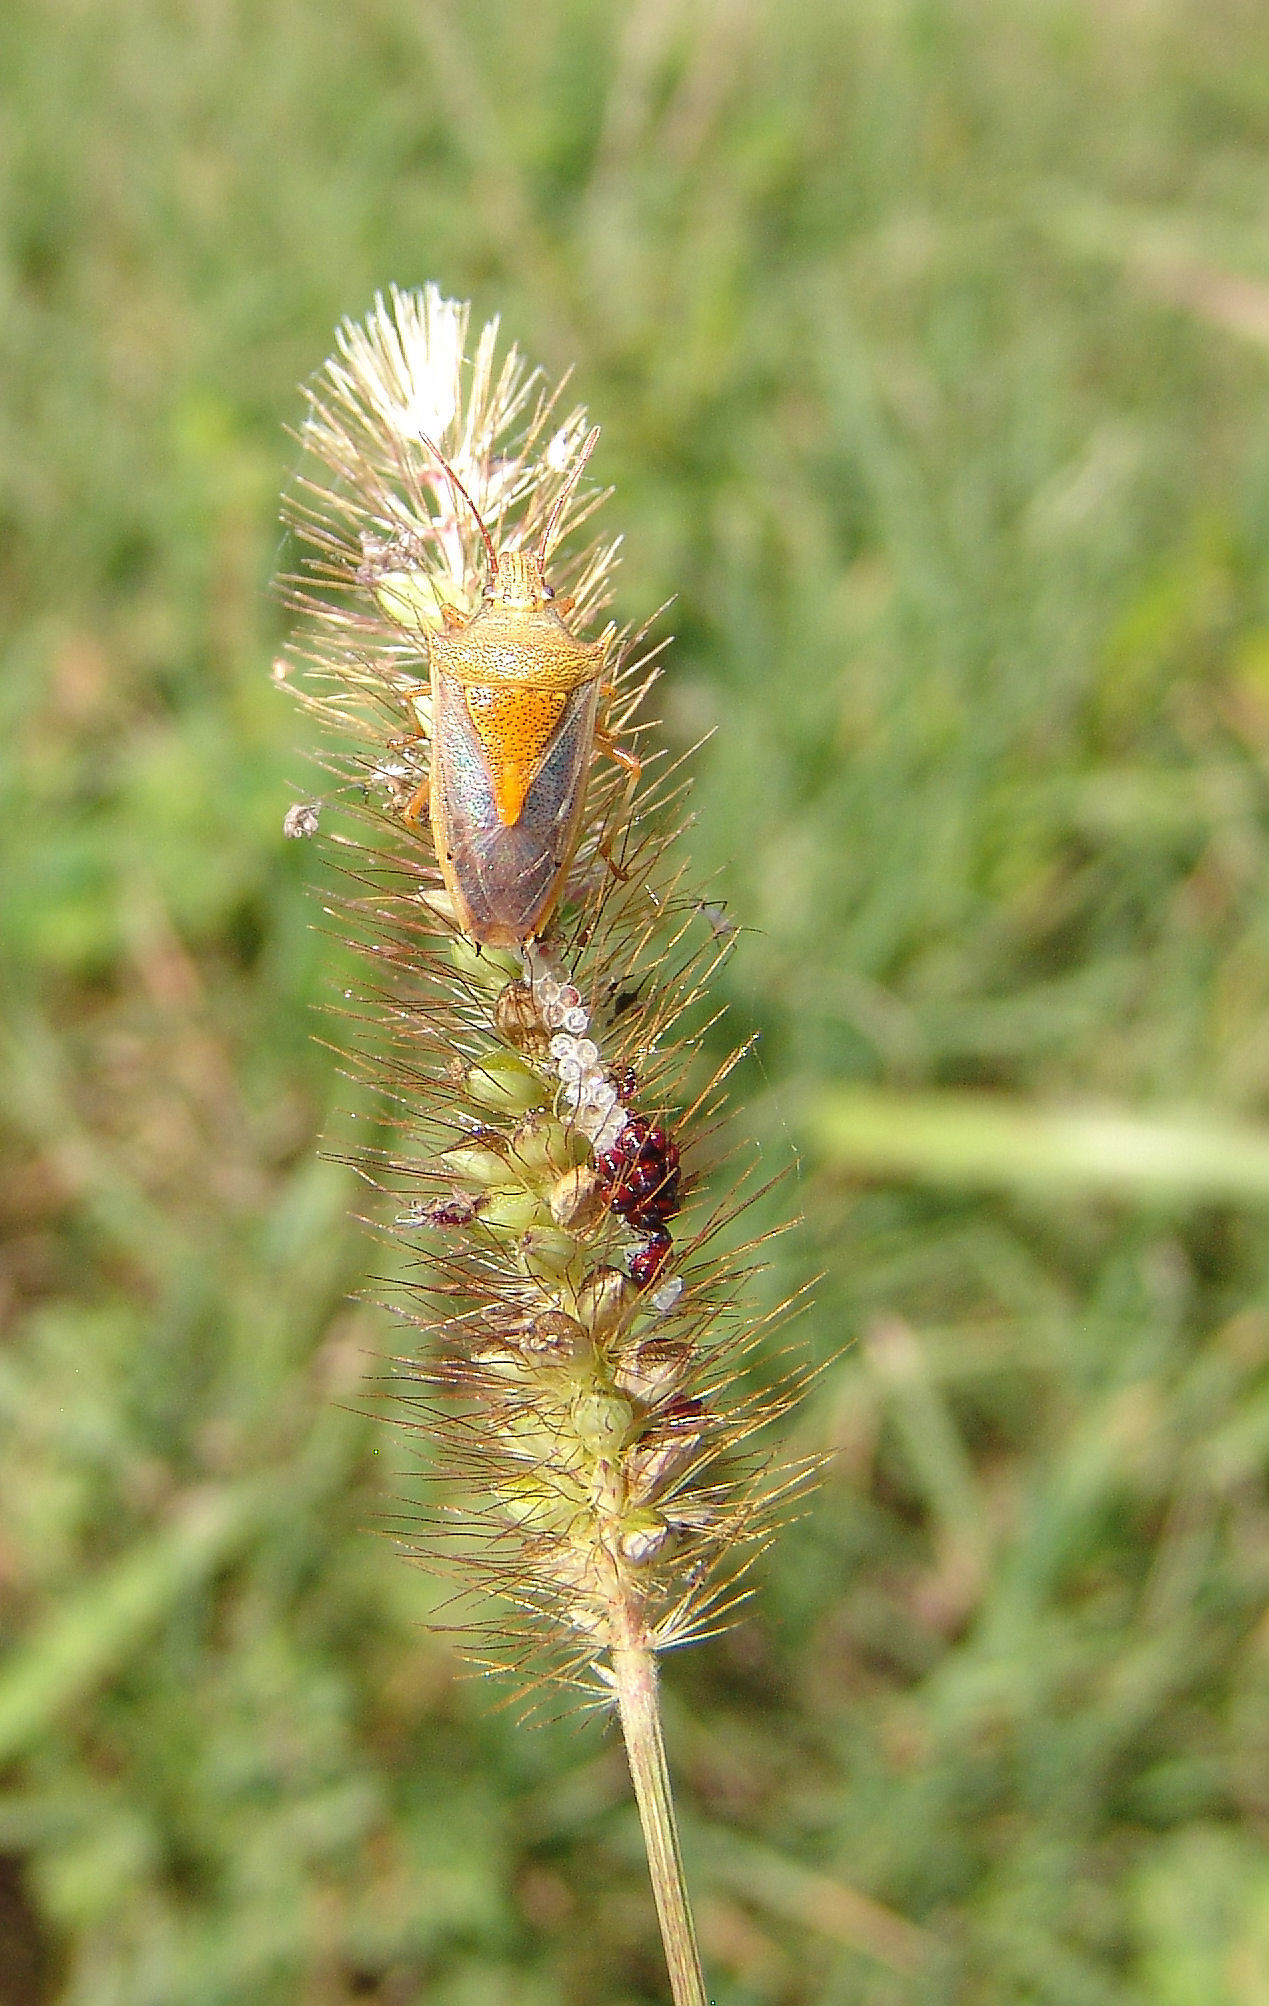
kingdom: Animalia
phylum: Arthropoda
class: Insecta
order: Hemiptera
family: Pentatomidae
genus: Oebalus
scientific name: Oebalus pugnax
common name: Rice stink bug
